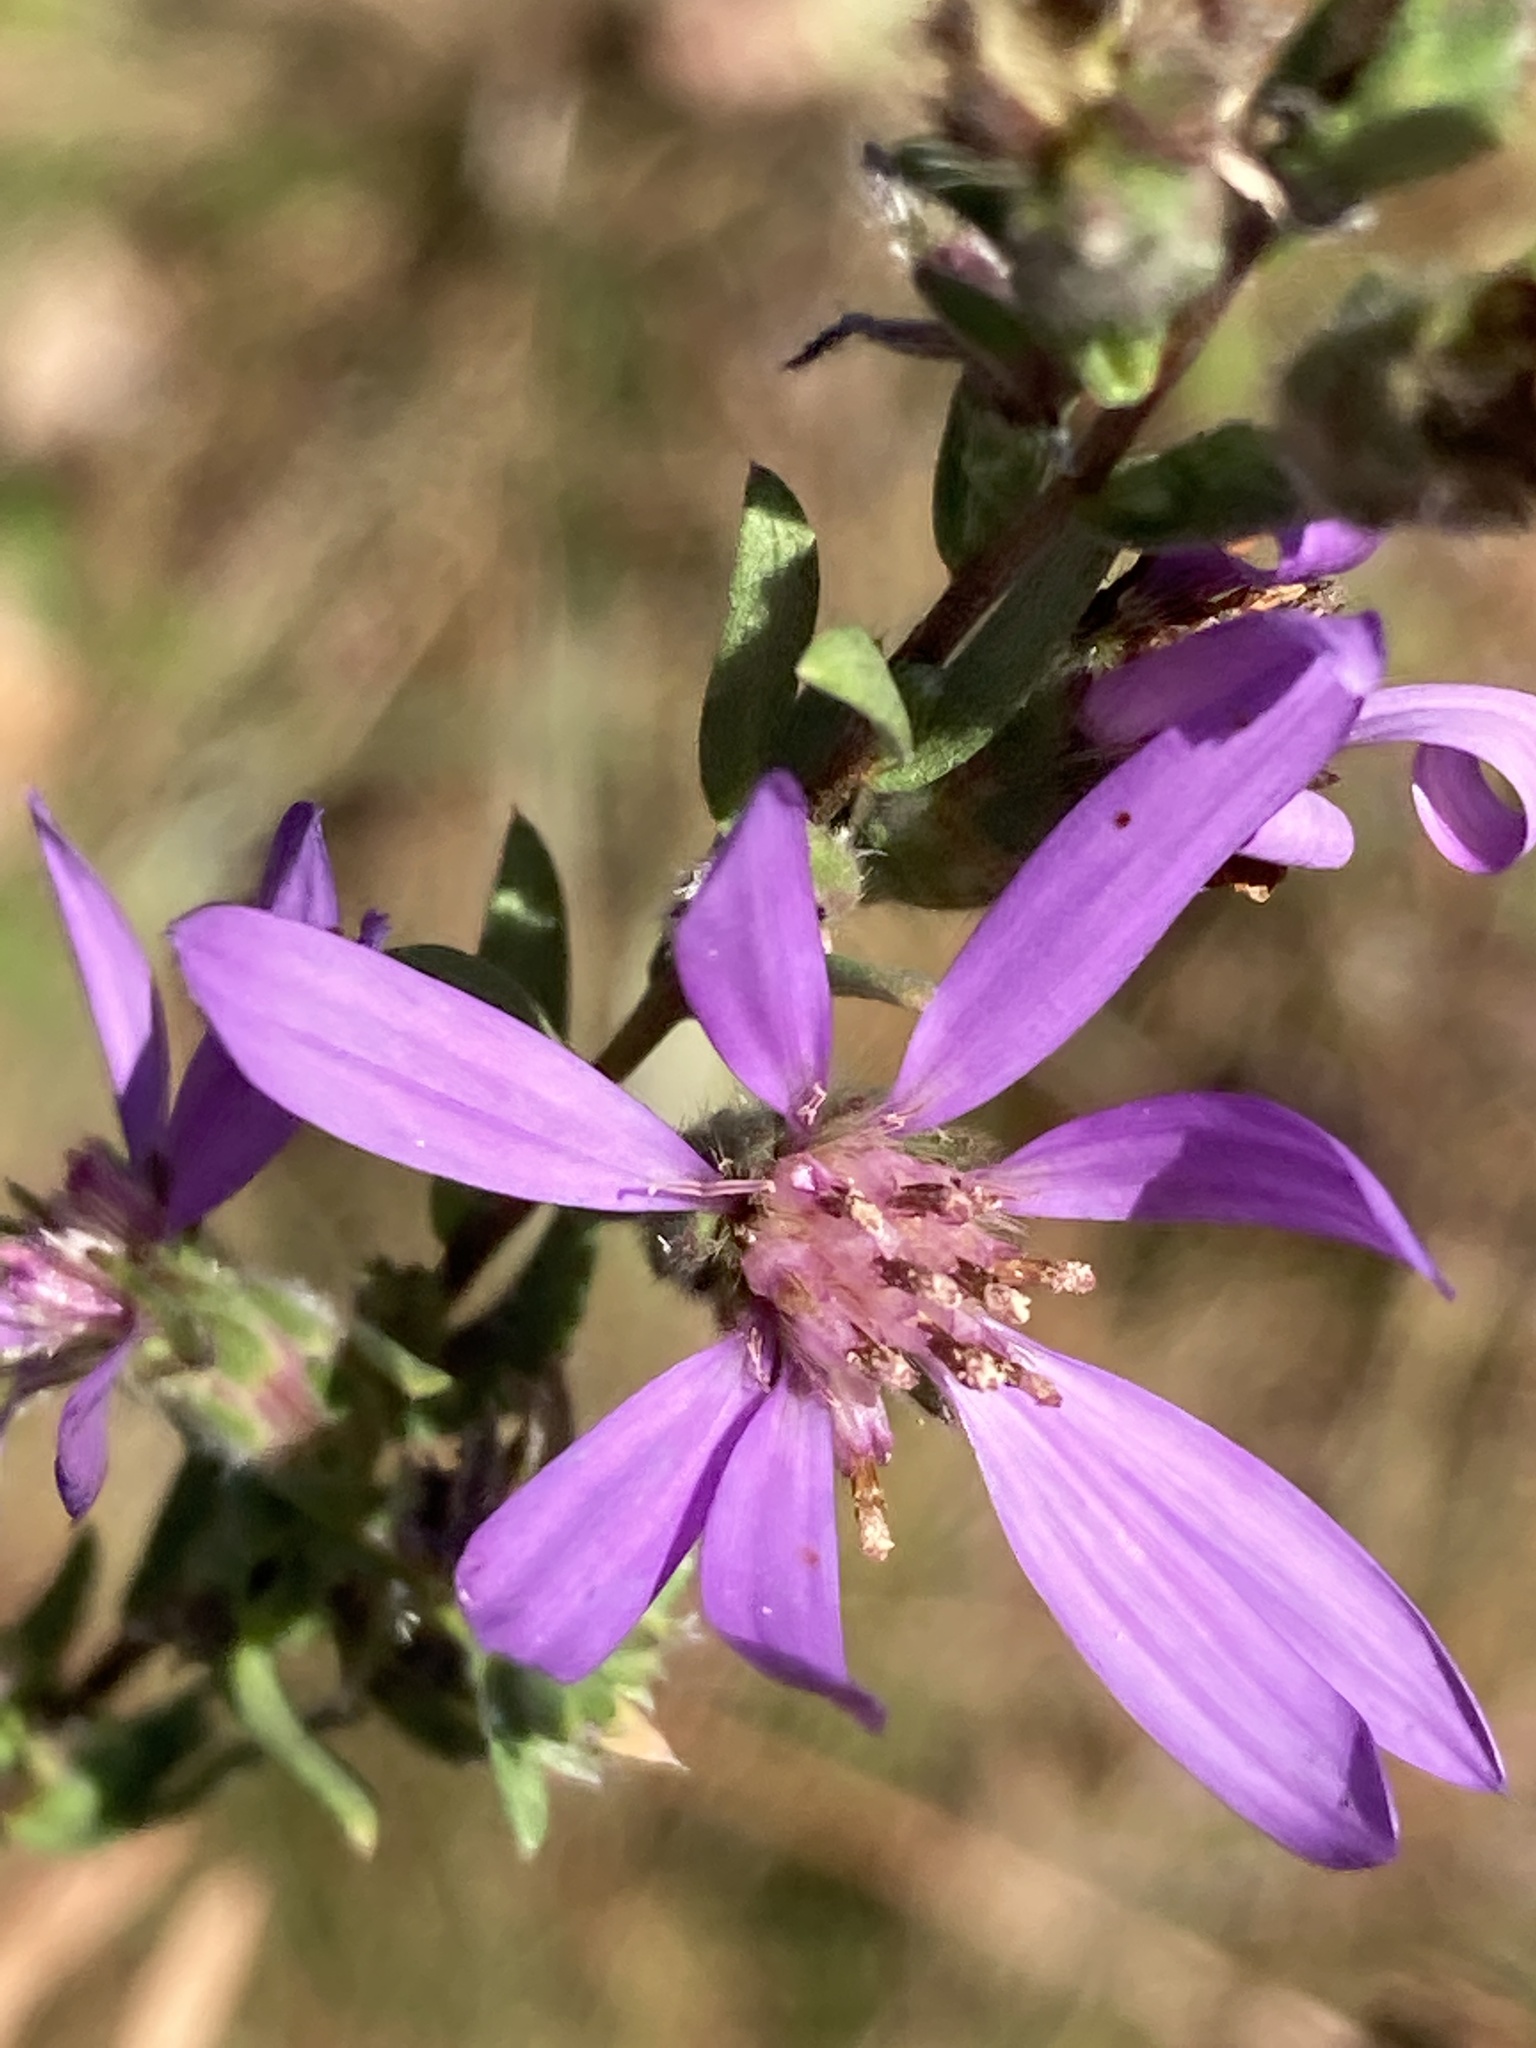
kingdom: Plantae
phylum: Tracheophyta
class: Magnoliopsida
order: Asterales
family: Asteraceae
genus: Symphyotrichum
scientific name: Symphyotrichum concolor
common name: Eastern silver aster
